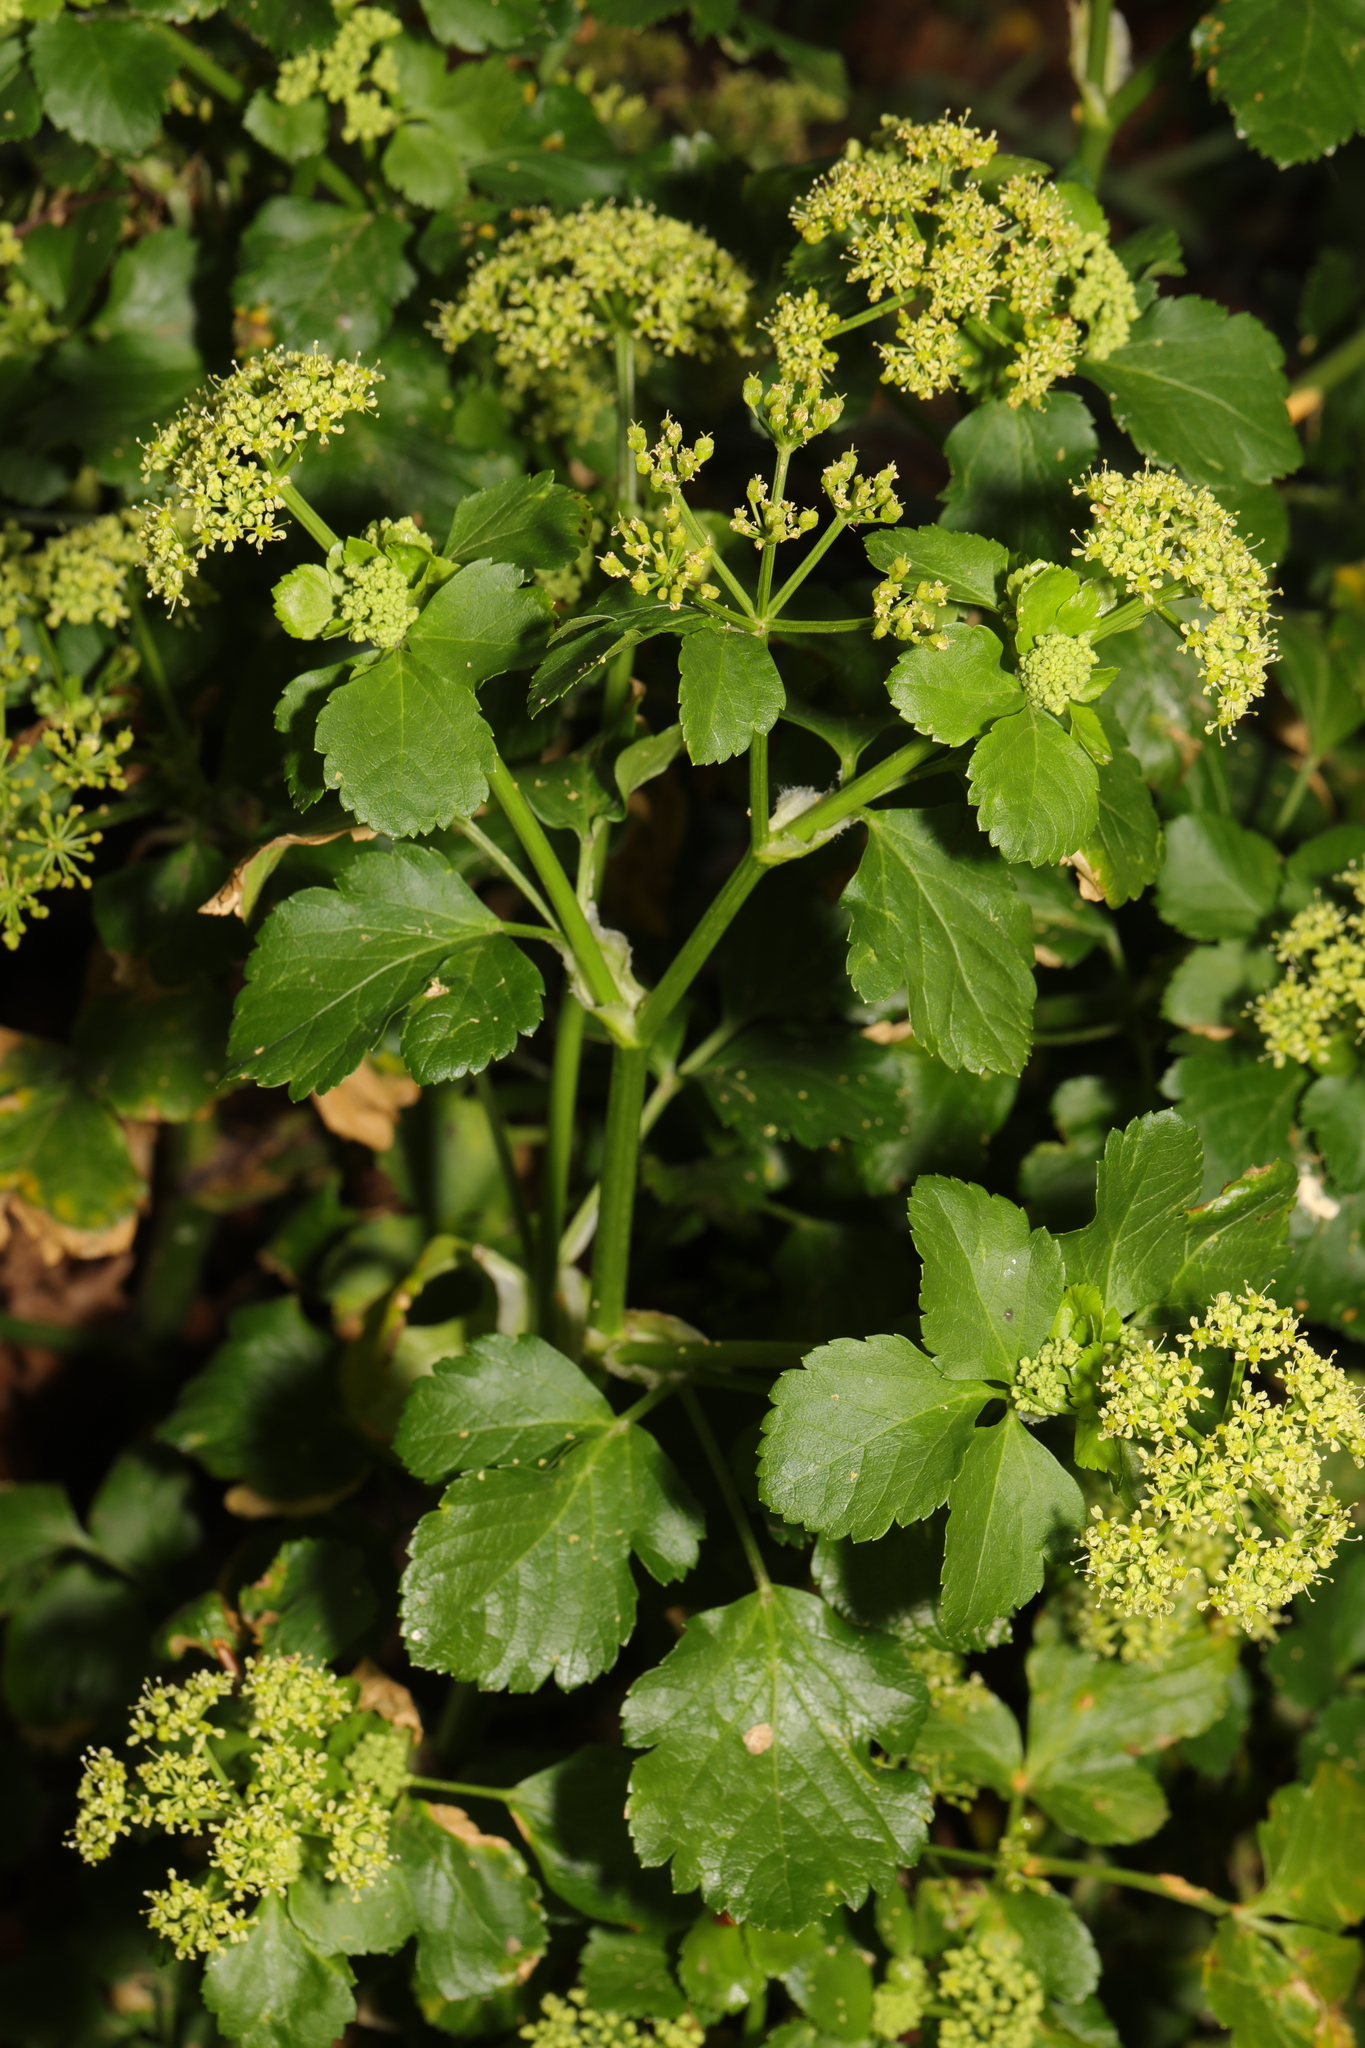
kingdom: Plantae
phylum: Tracheophyta
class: Magnoliopsida
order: Apiales
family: Apiaceae
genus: Smyrnium
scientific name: Smyrnium olusatrum
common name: Alexanders
